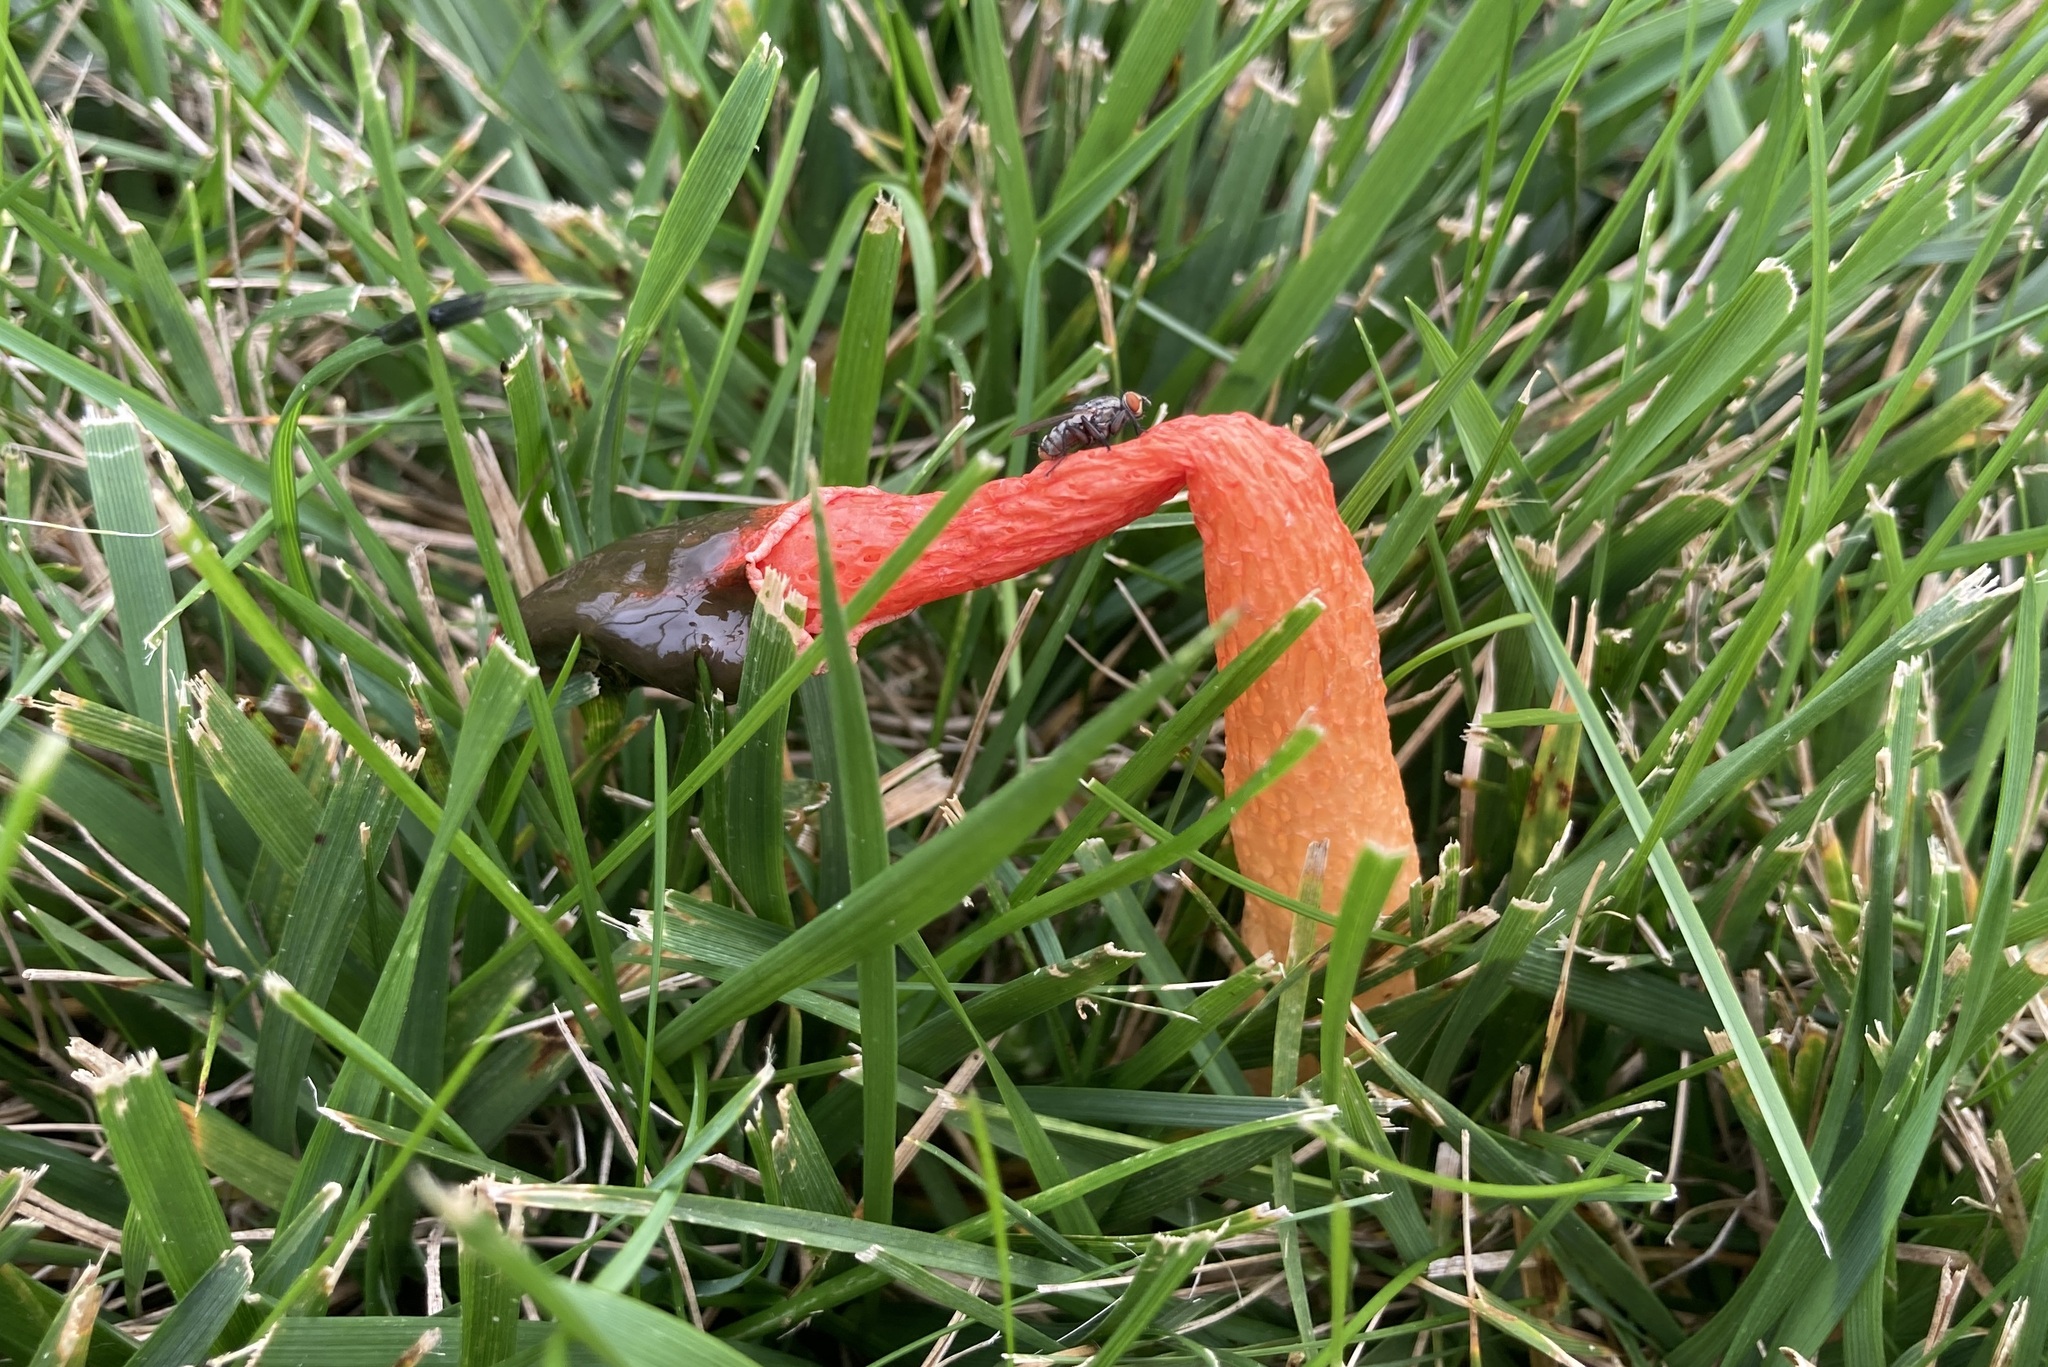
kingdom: Fungi
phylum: Basidiomycota
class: Agaricomycetes
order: Phallales
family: Phallaceae
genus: Phallus
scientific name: Phallus rugulosus
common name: Wrinkly stinkhorn
